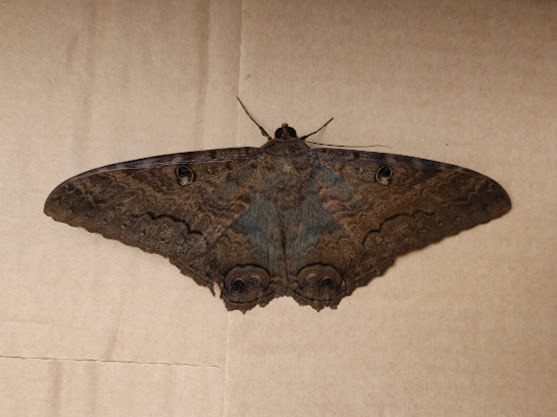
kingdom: Animalia
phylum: Arthropoda
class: Insecta
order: Lepidoptera
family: Erebidae
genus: Ascalapha
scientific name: Ascalapha odorata
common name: Black witch
